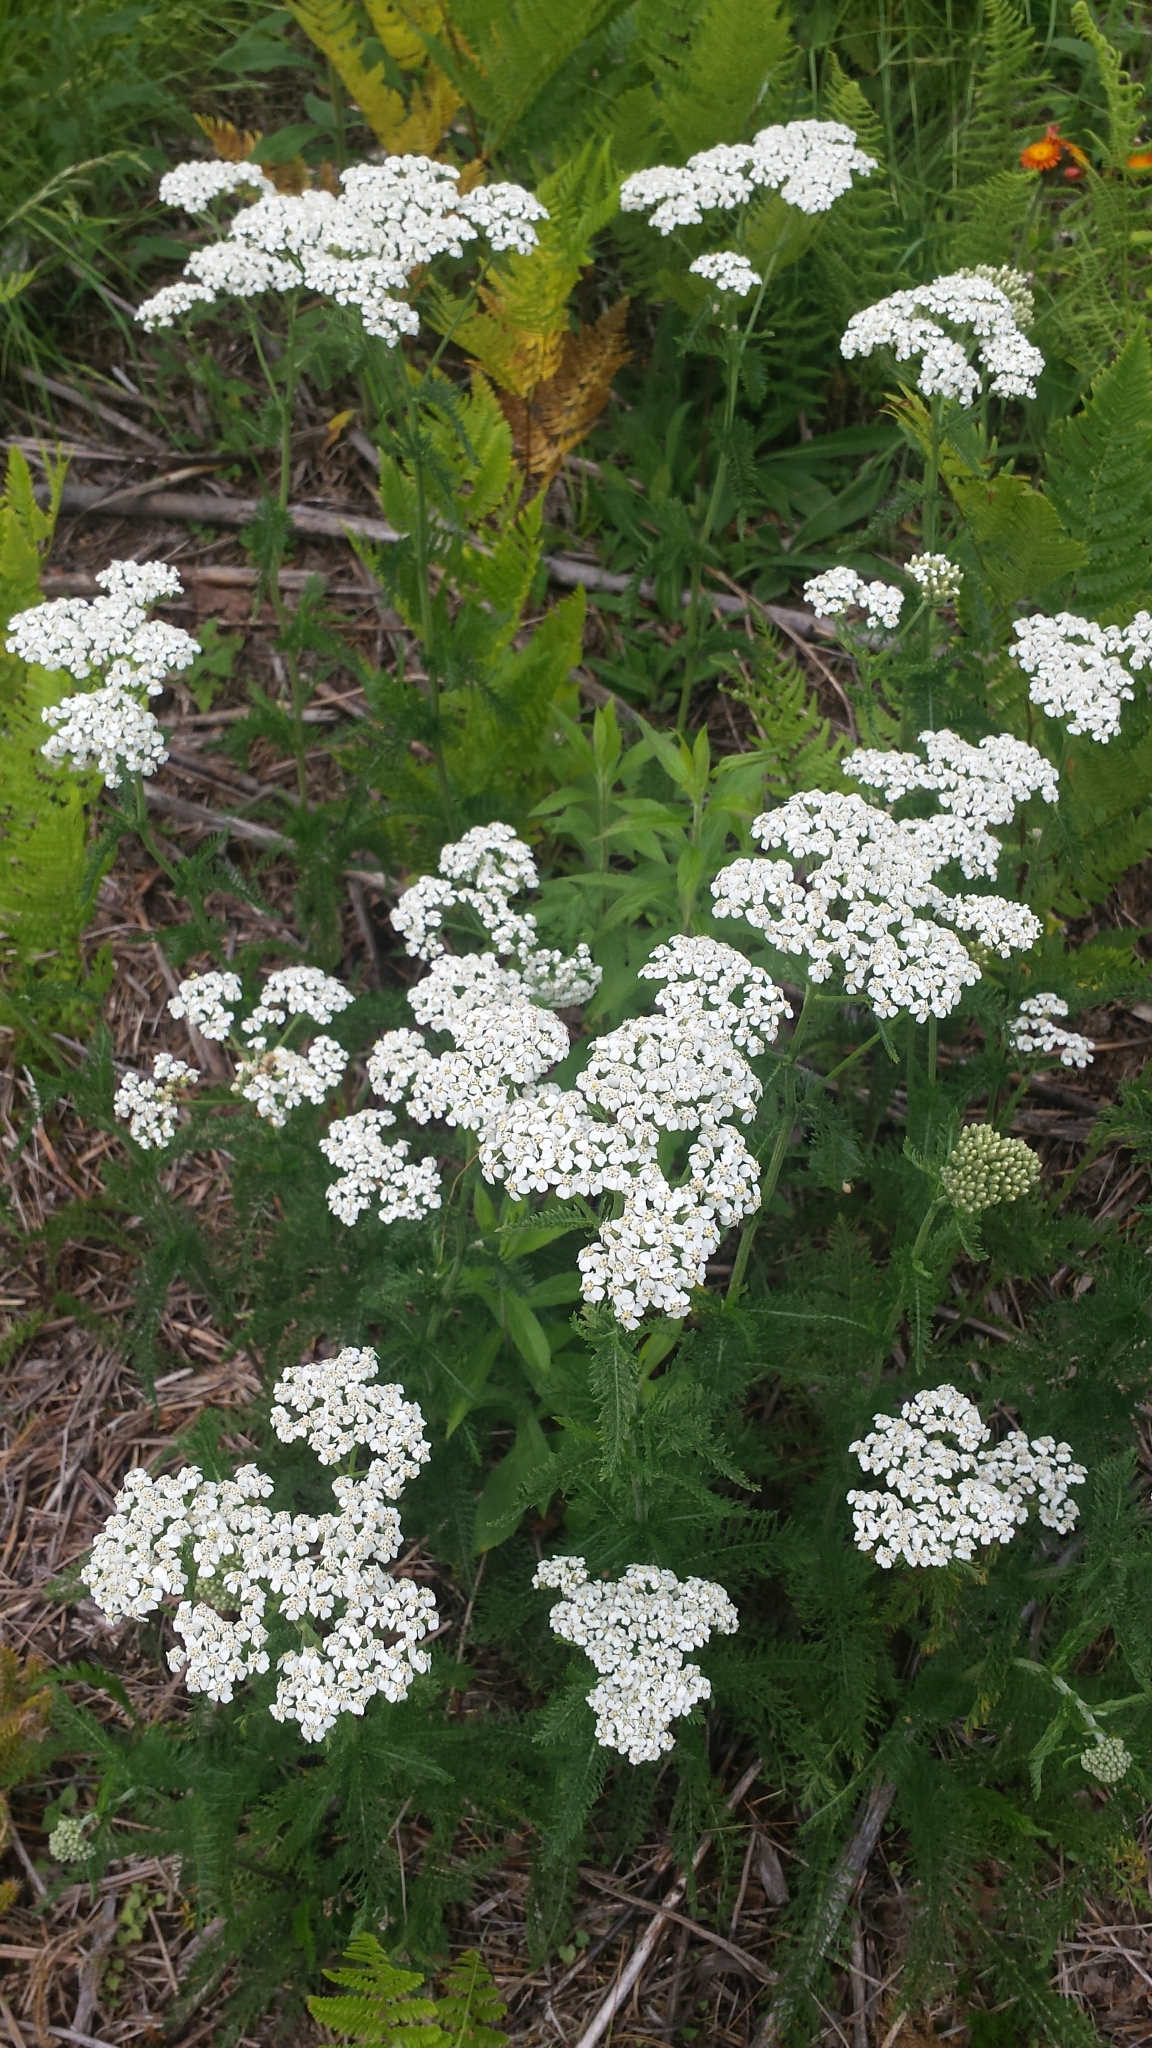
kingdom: Plantae
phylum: Tracheophyta
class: Magnoliopsida
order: Asterales
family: Asteraceae
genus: Achillea
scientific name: Achillea millefolium
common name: Yarrow
